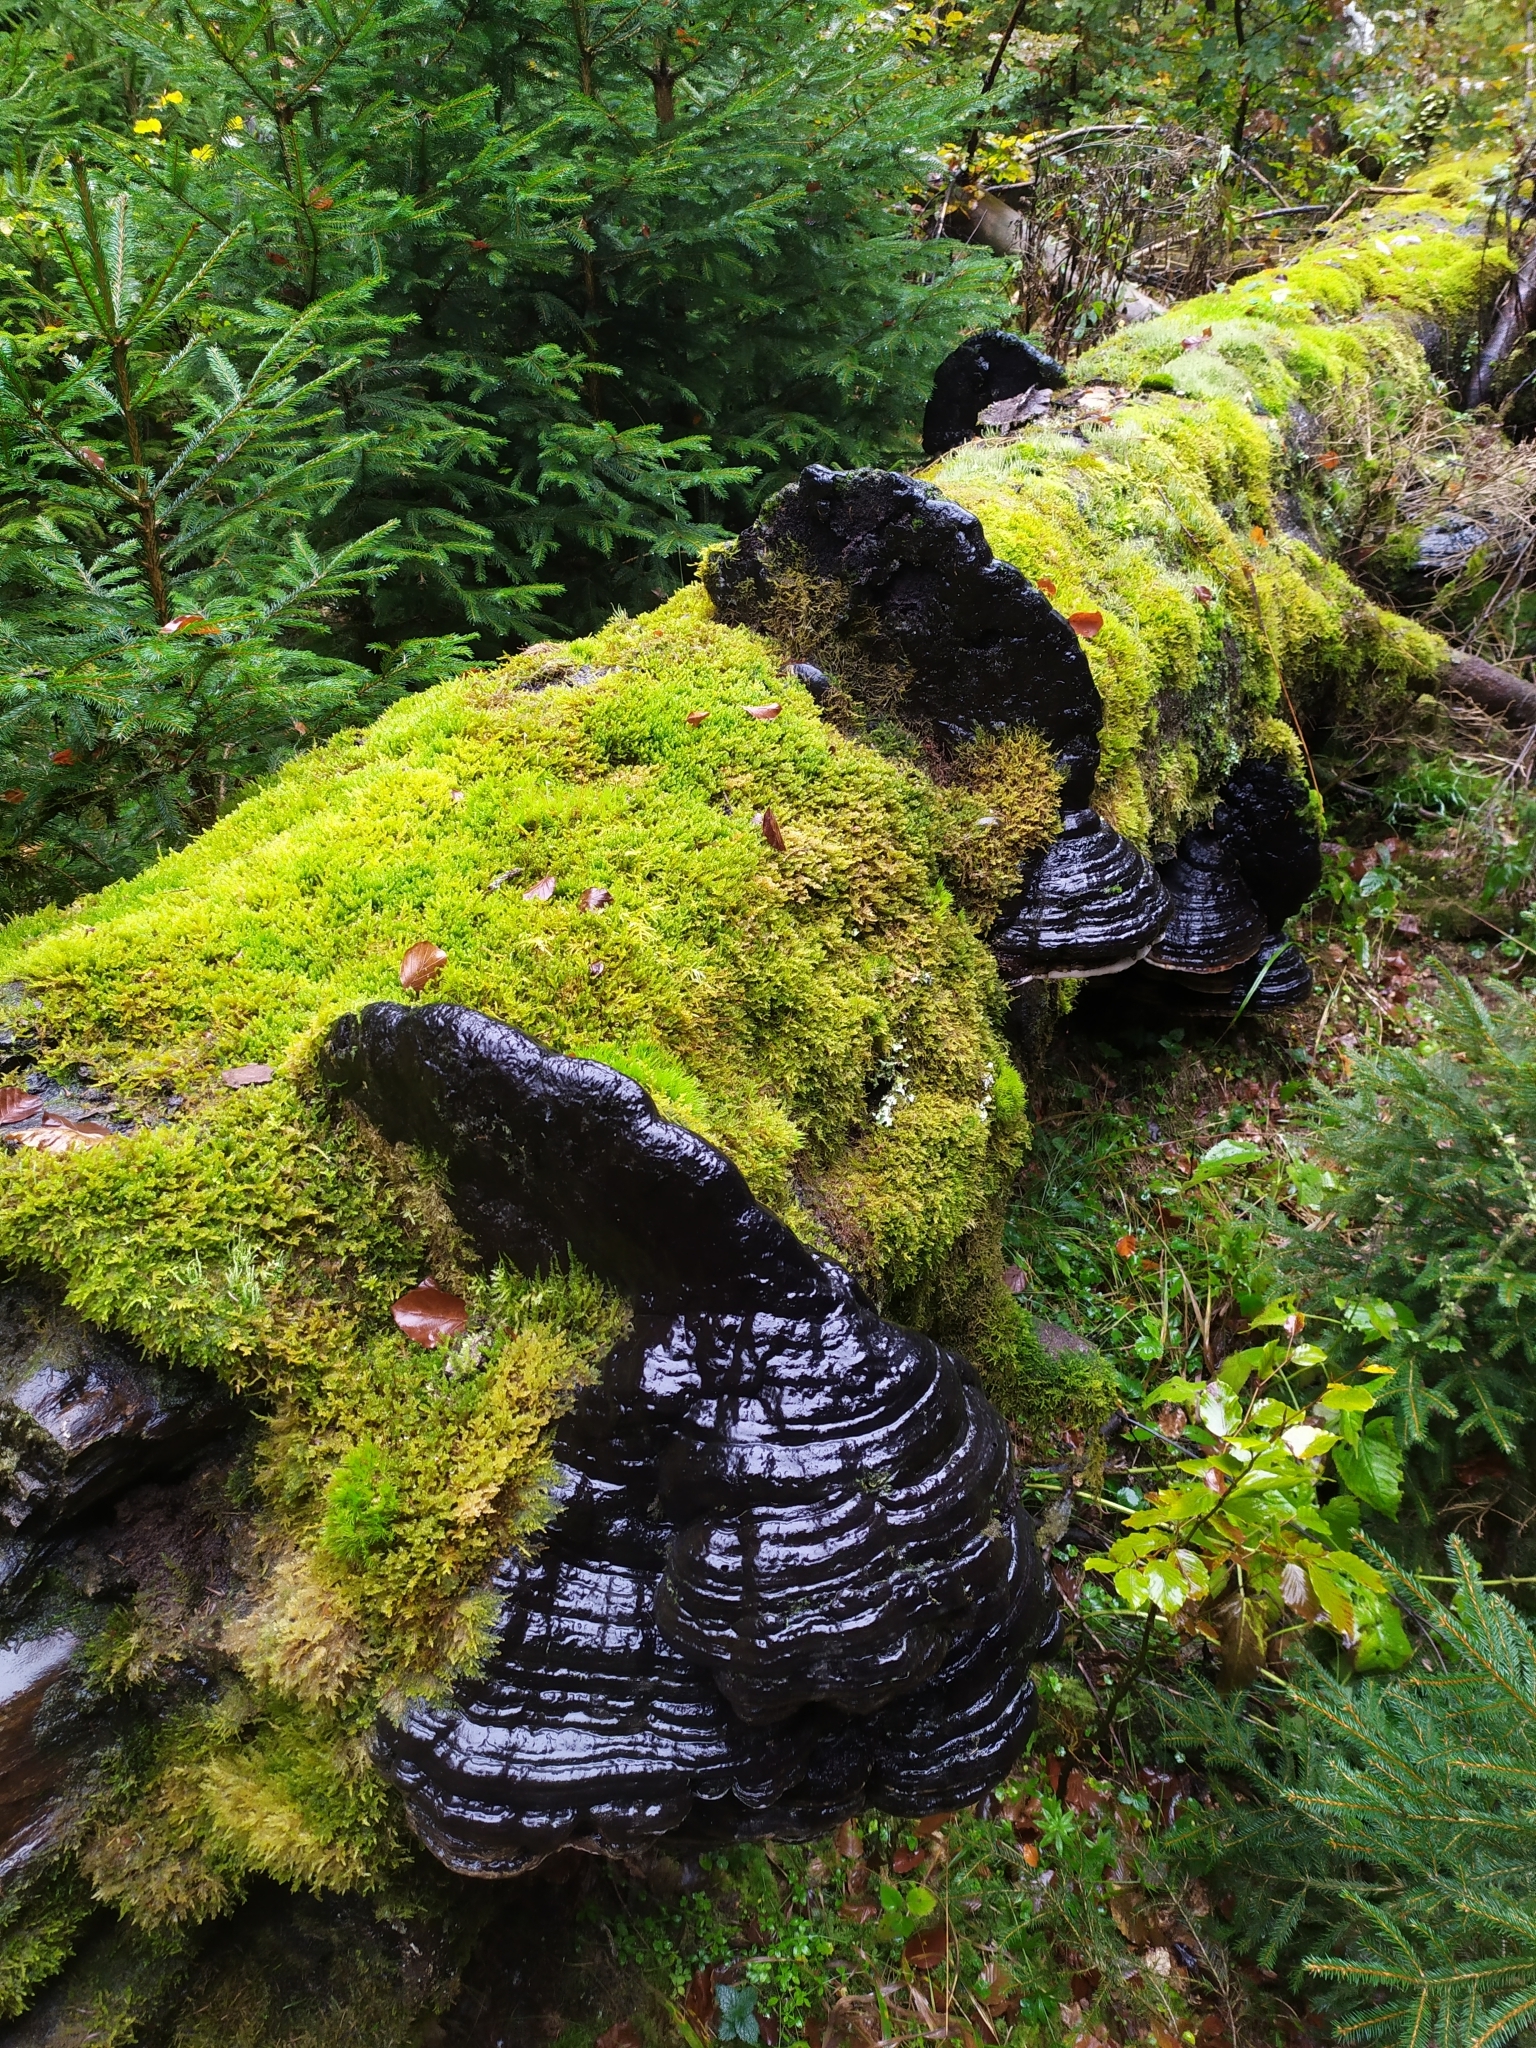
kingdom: Fungi
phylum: Basidiomycota
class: Agaricomycetes
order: Polyporales
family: Fomitopsidaceae
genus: Fomitopsis
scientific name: Fomitopsis pinicola
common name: Red-belted bracket
